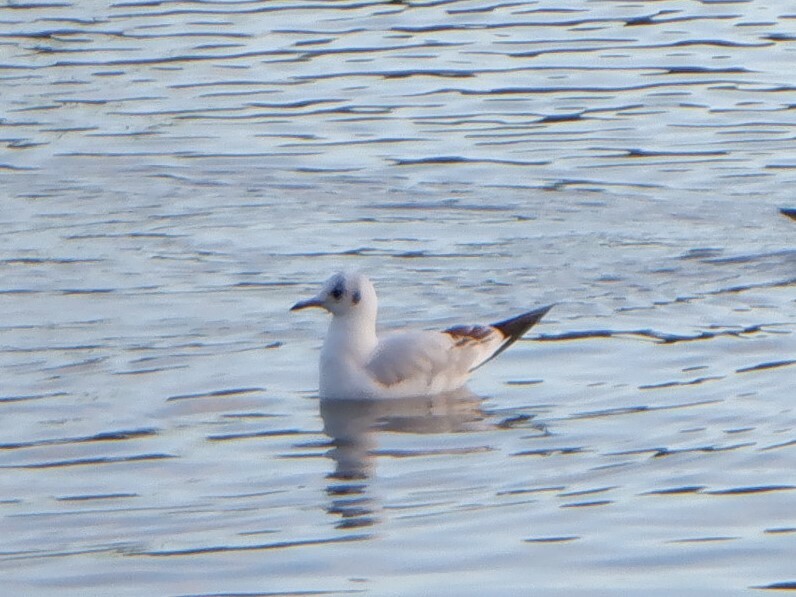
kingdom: Animalia
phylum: Chordata
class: Aves
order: Charadriiformes
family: Laridae
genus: Chroicocephalus
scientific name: Chroicocephalus ridibundus
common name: Black-headed gull
